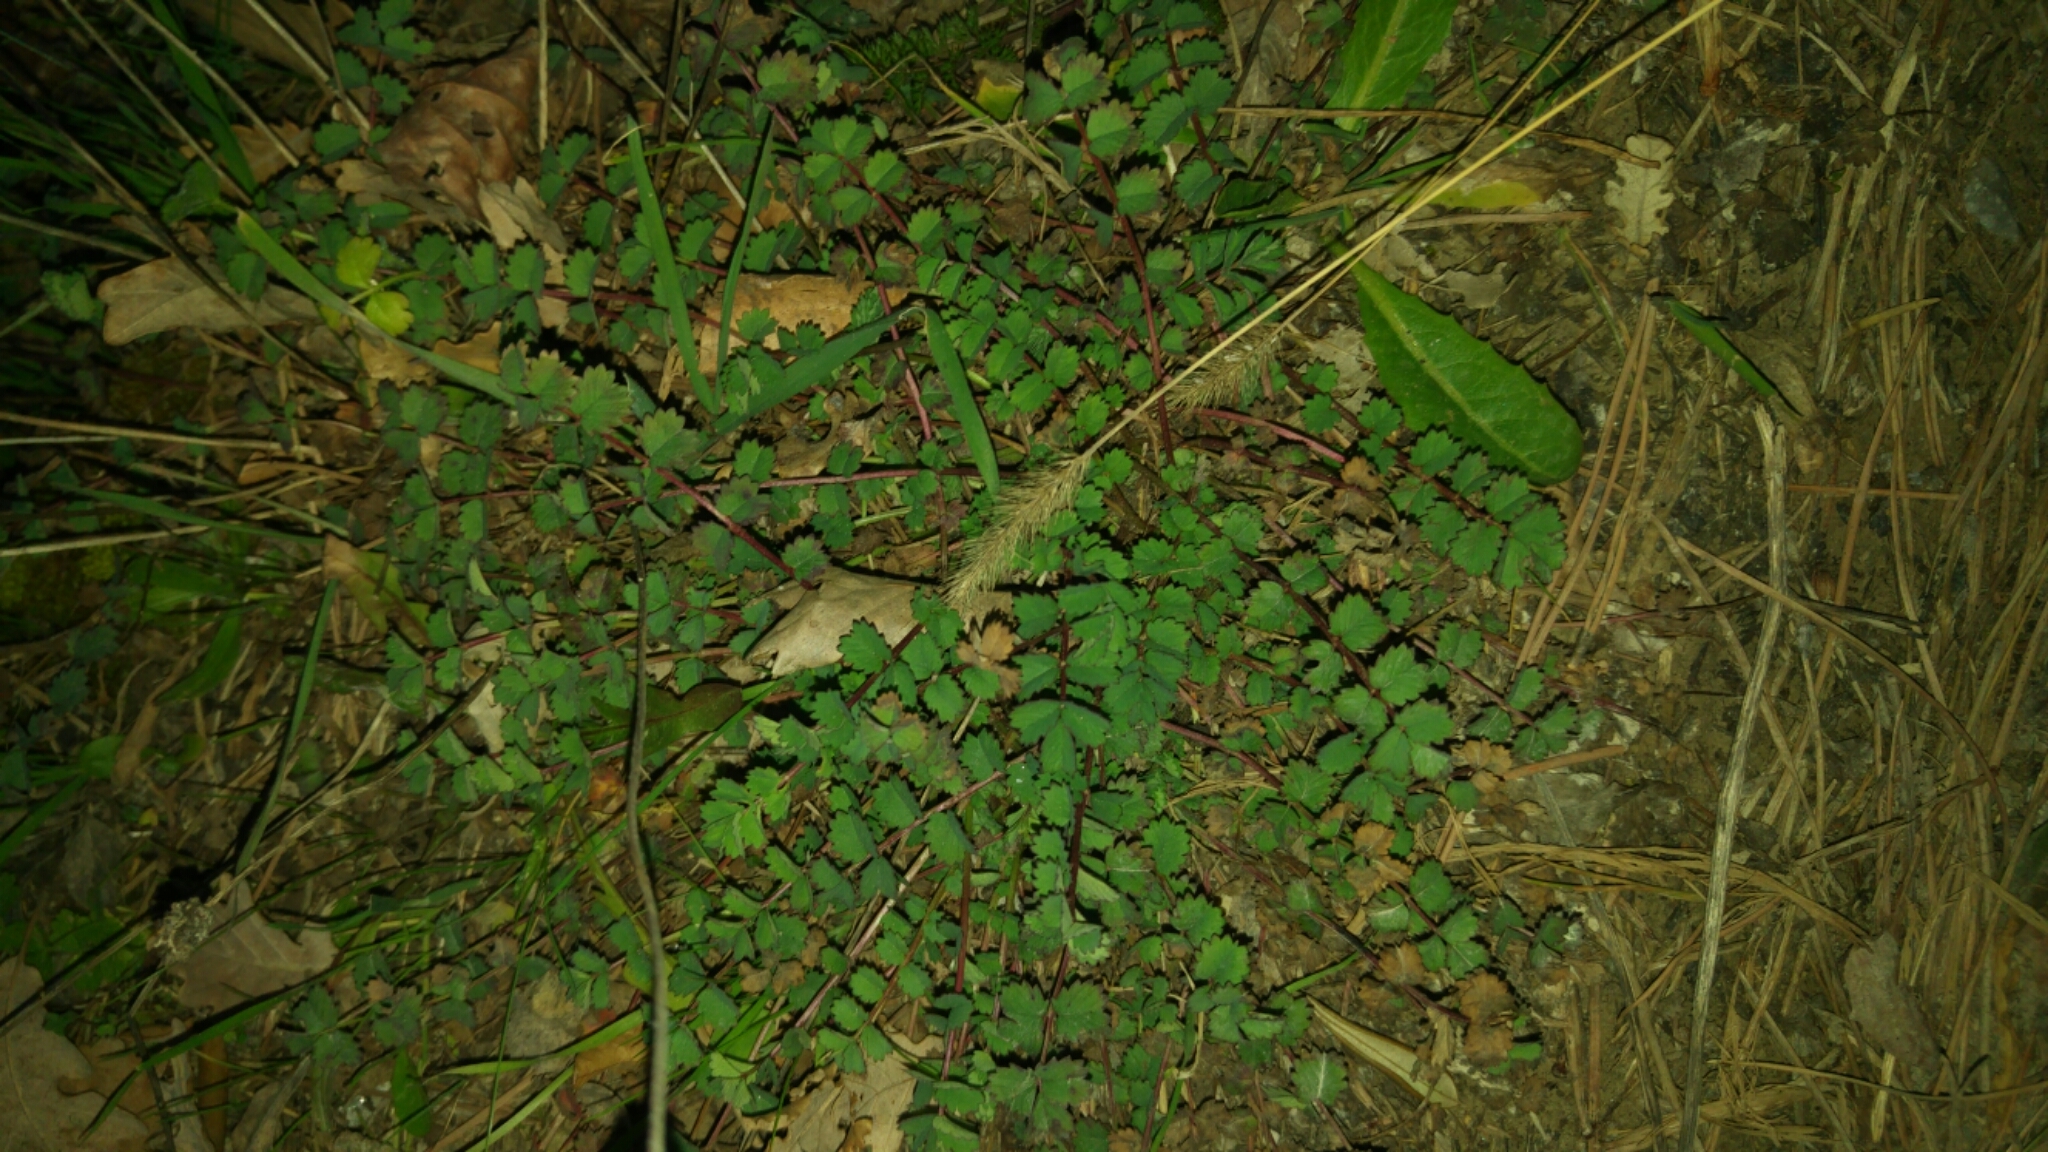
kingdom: Plantae
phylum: Tracheophyta
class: Magnoliopsida
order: Rosales
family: Rosaceae
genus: Poterium
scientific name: Poterium sanguisorba
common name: Salad burnet
